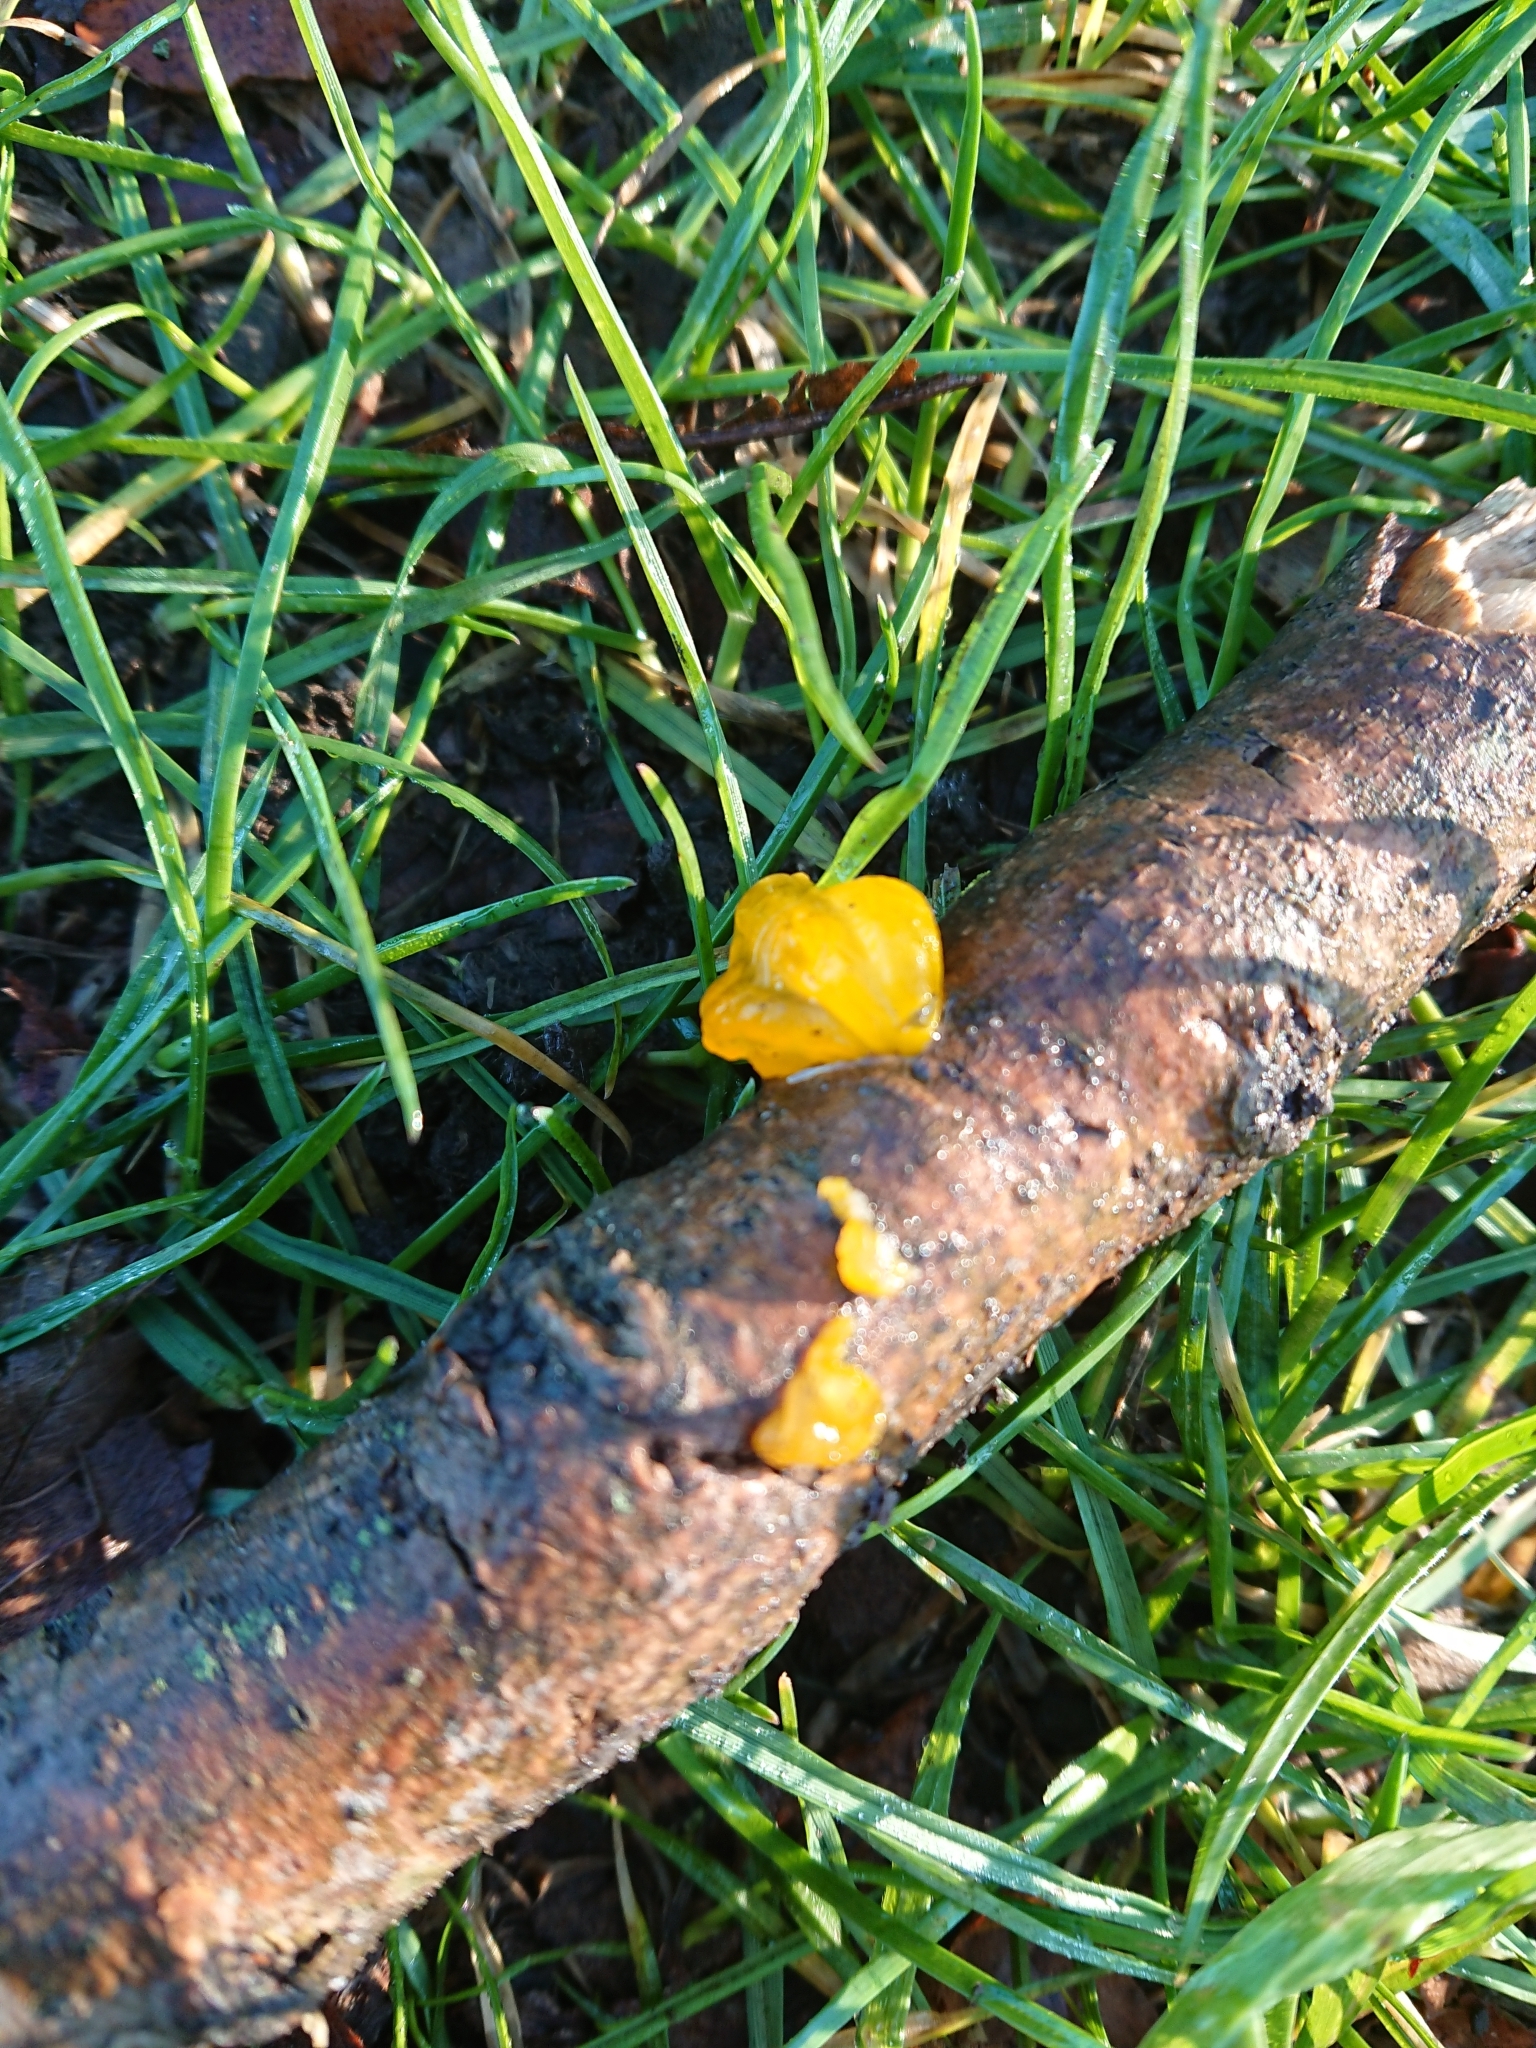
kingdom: Fungi
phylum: Basidiomycota
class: Tremellomycetes
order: Tremellales
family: Tremellaceae
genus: Tremella
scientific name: Tremella mesenterica
